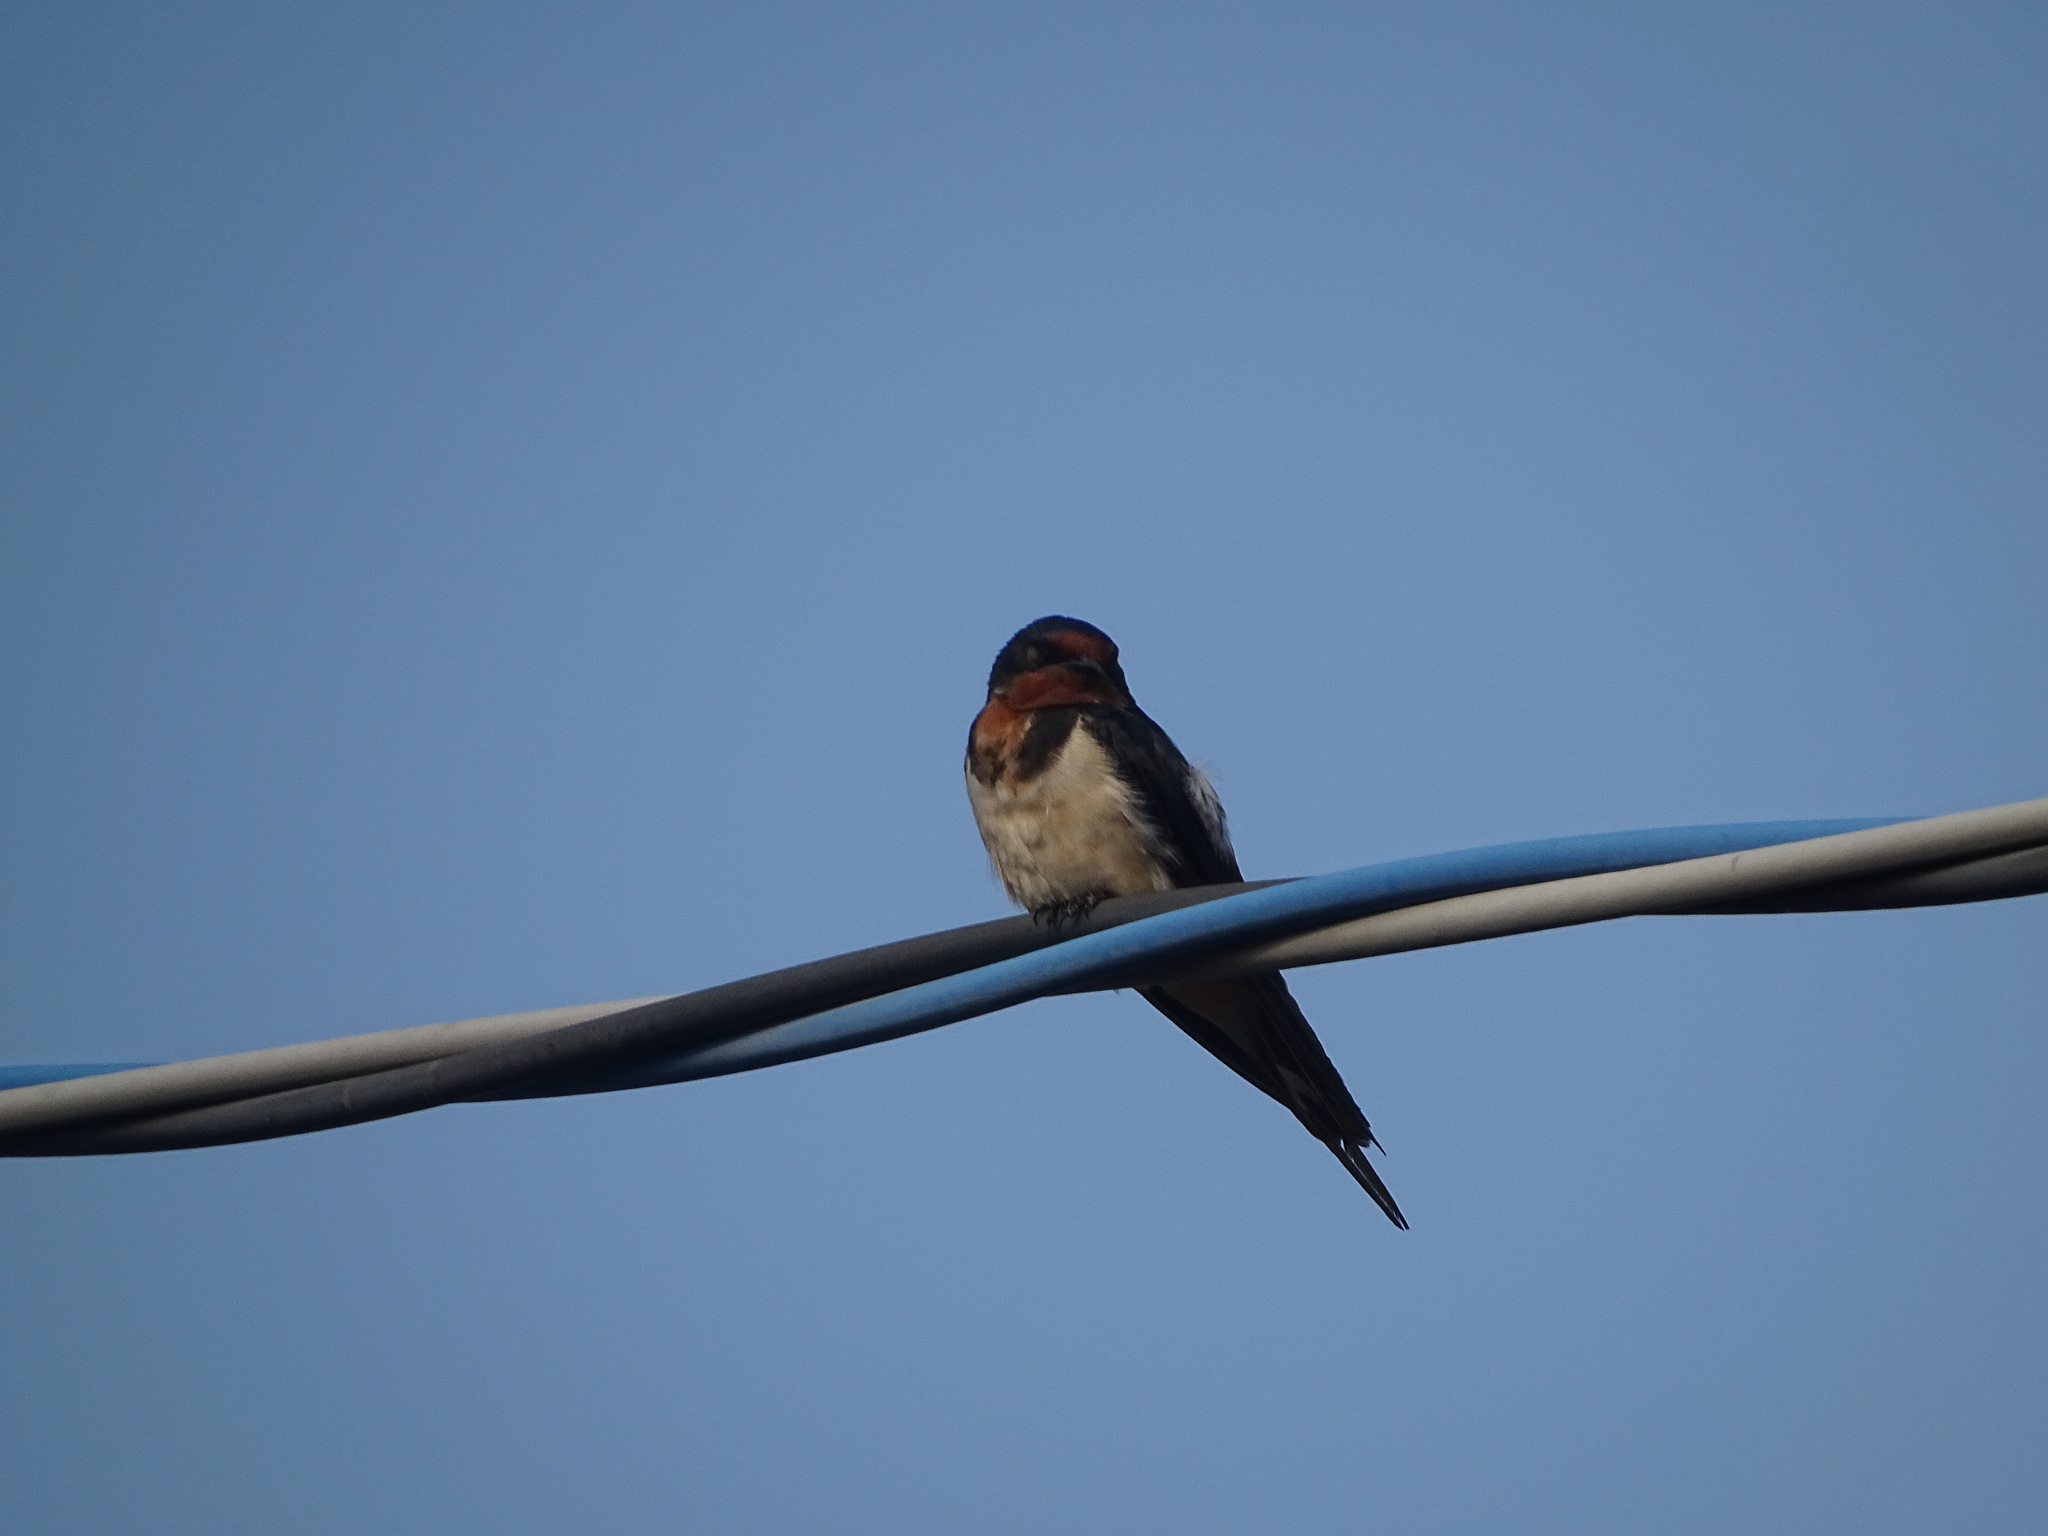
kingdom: Animalia
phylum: Chordata
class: Aves
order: Passeriformes
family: Hirundinidae
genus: Hirundo
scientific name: Hirundo rustica
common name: Barn swallow
